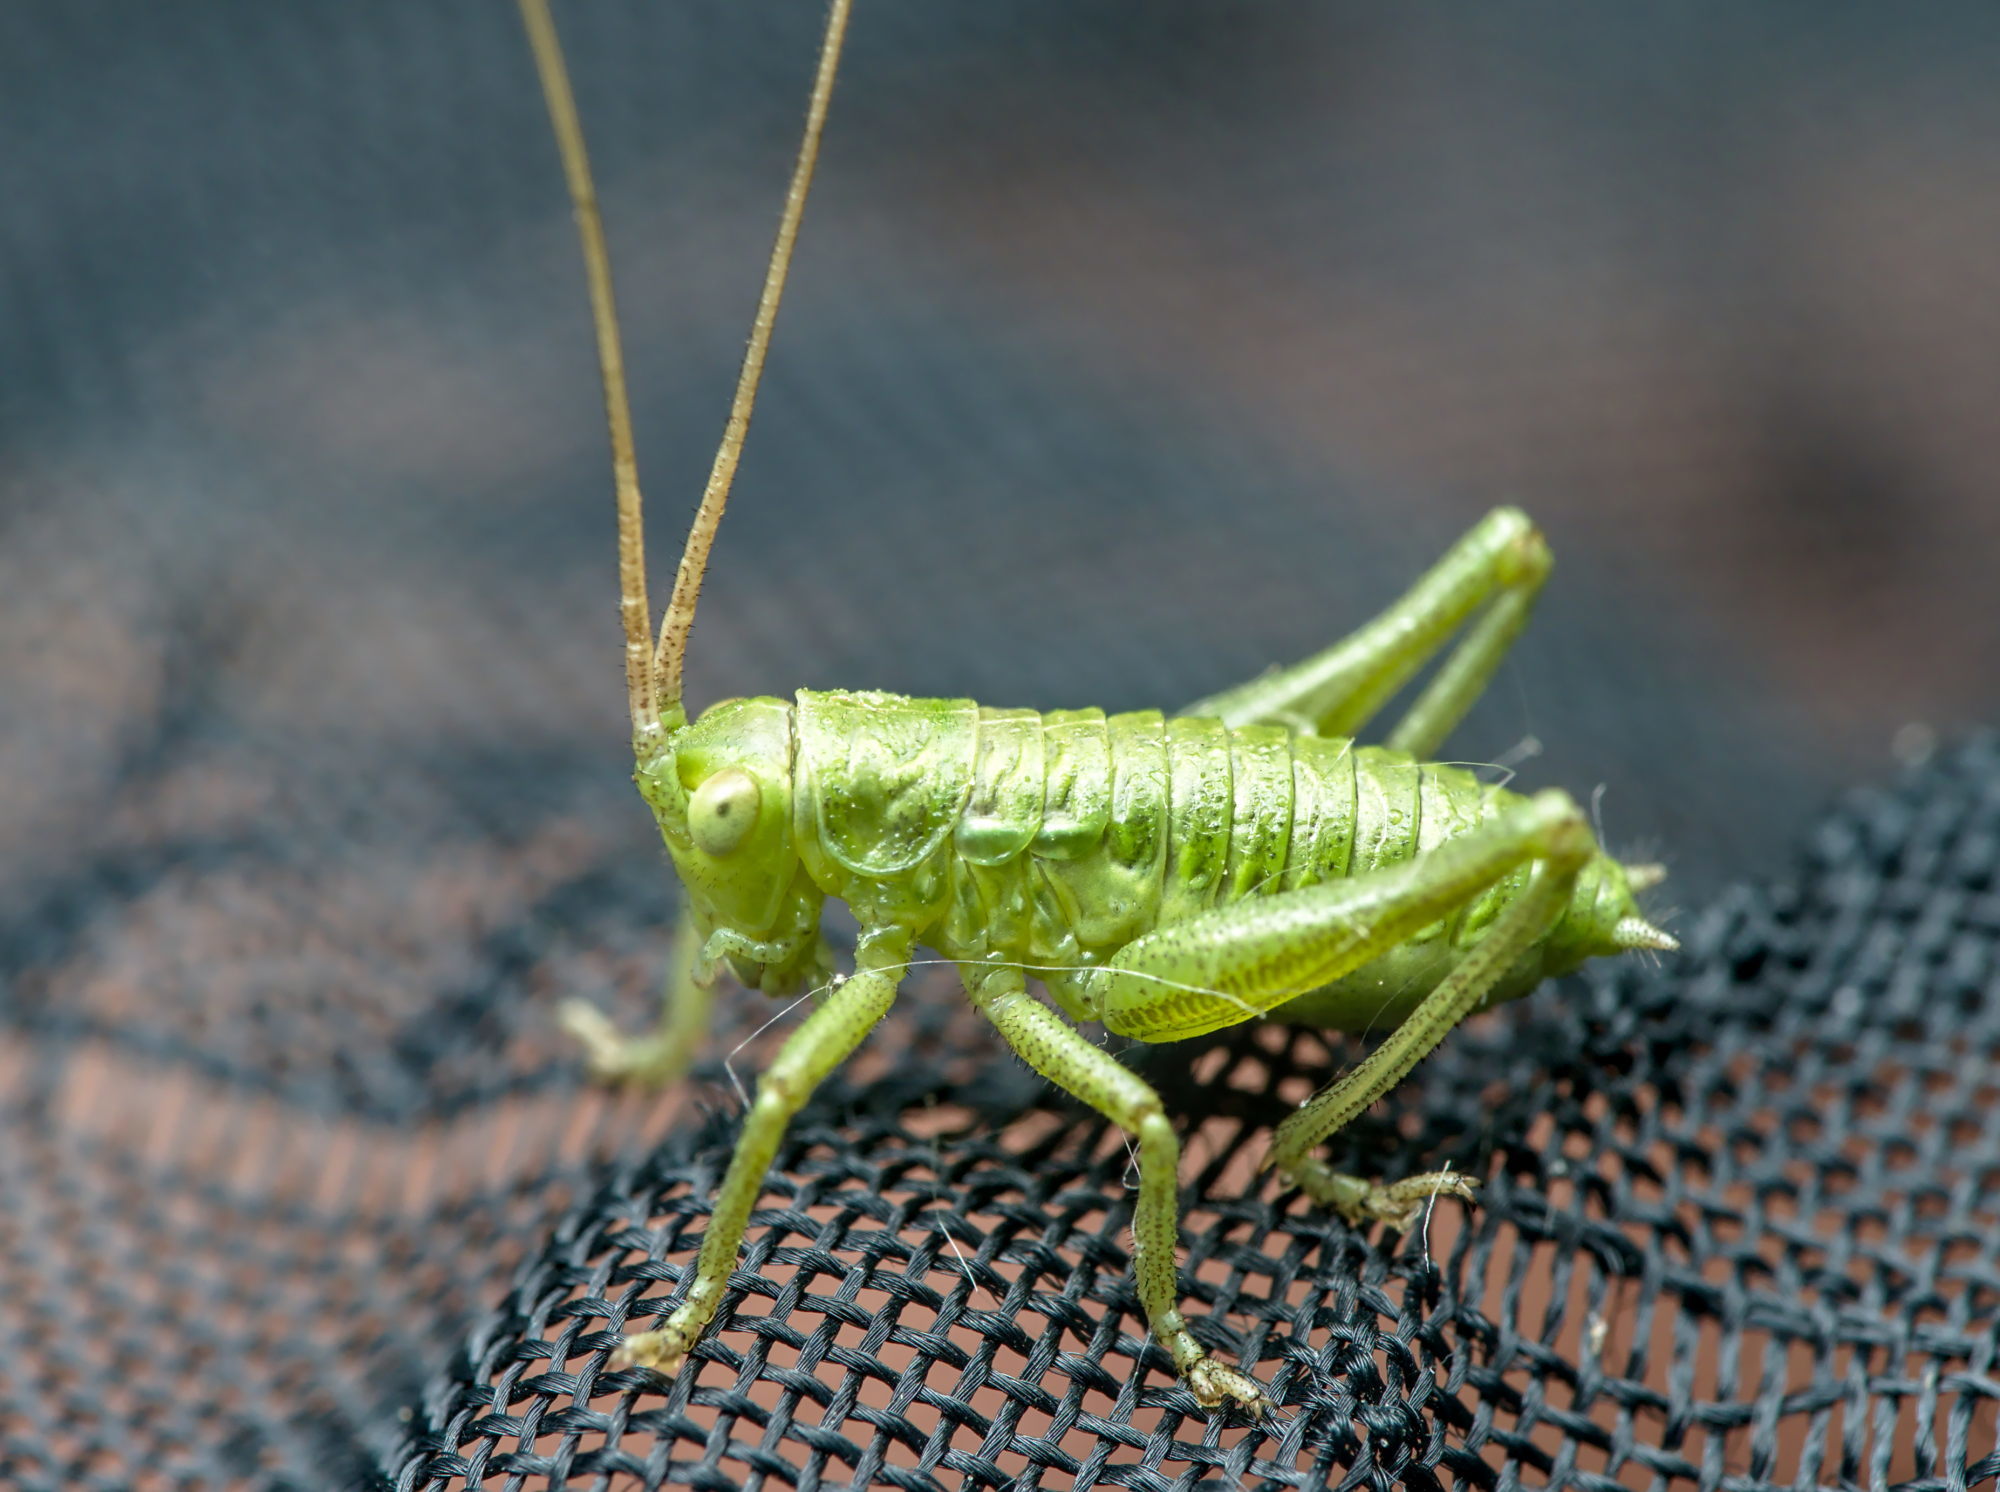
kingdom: Animalia
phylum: Arthropoda
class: Insecta
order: Orthoptera
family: Tettigoniidae
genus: Tettigonia
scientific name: Tettigonia viridissima
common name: Great green bush-cricket
